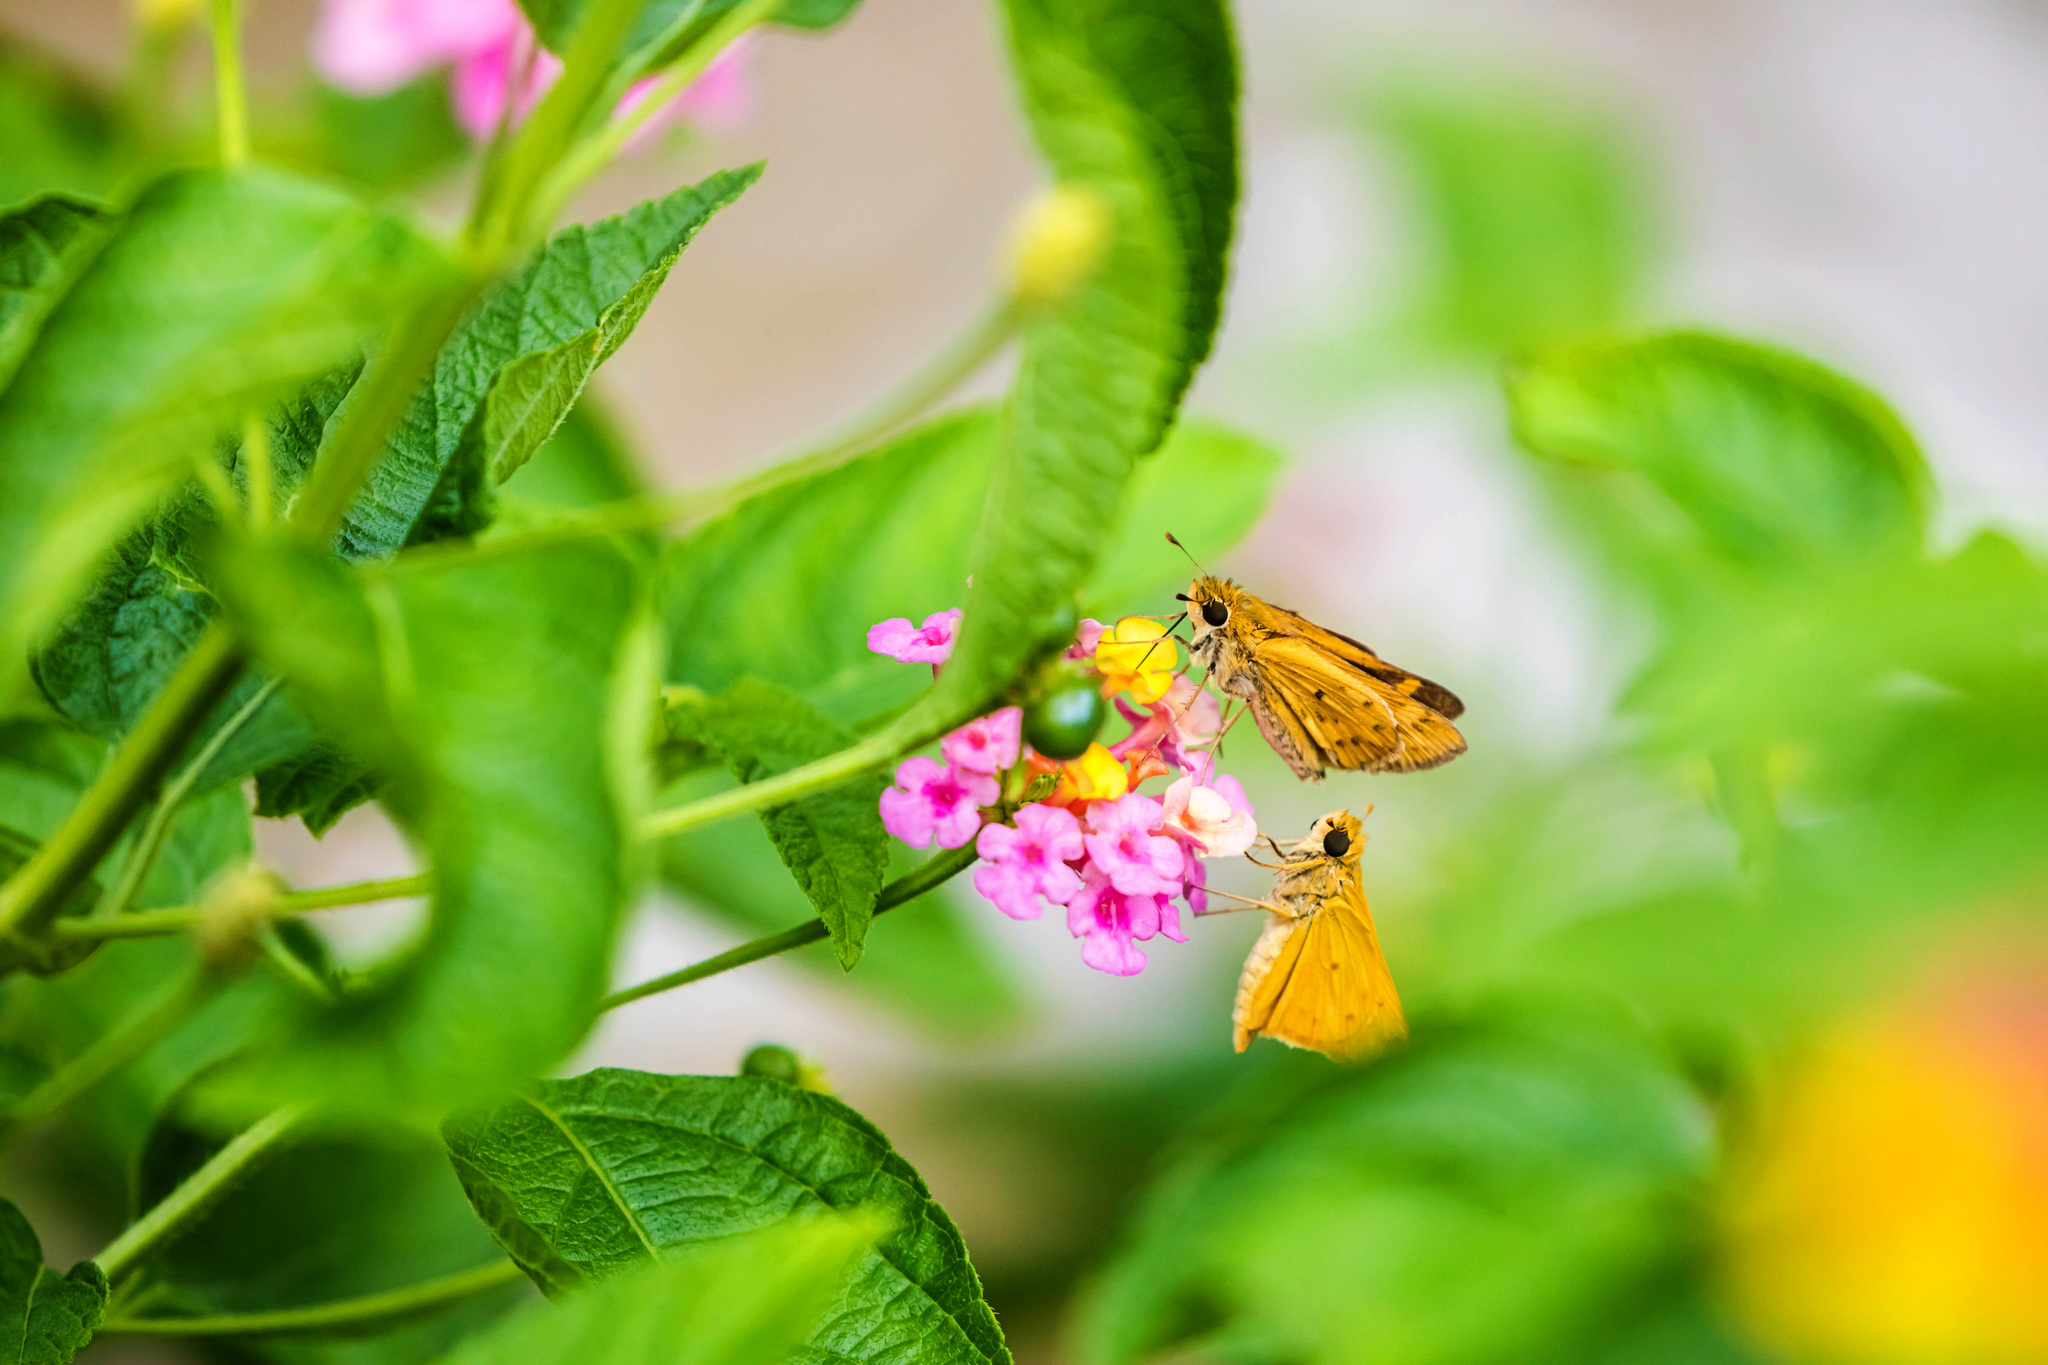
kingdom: Animalia
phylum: Arthropoda
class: Insecta
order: Lepidoptera
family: Hesperiidae
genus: Hylephila
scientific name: Hylephila phyleus
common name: Fiery skipper
